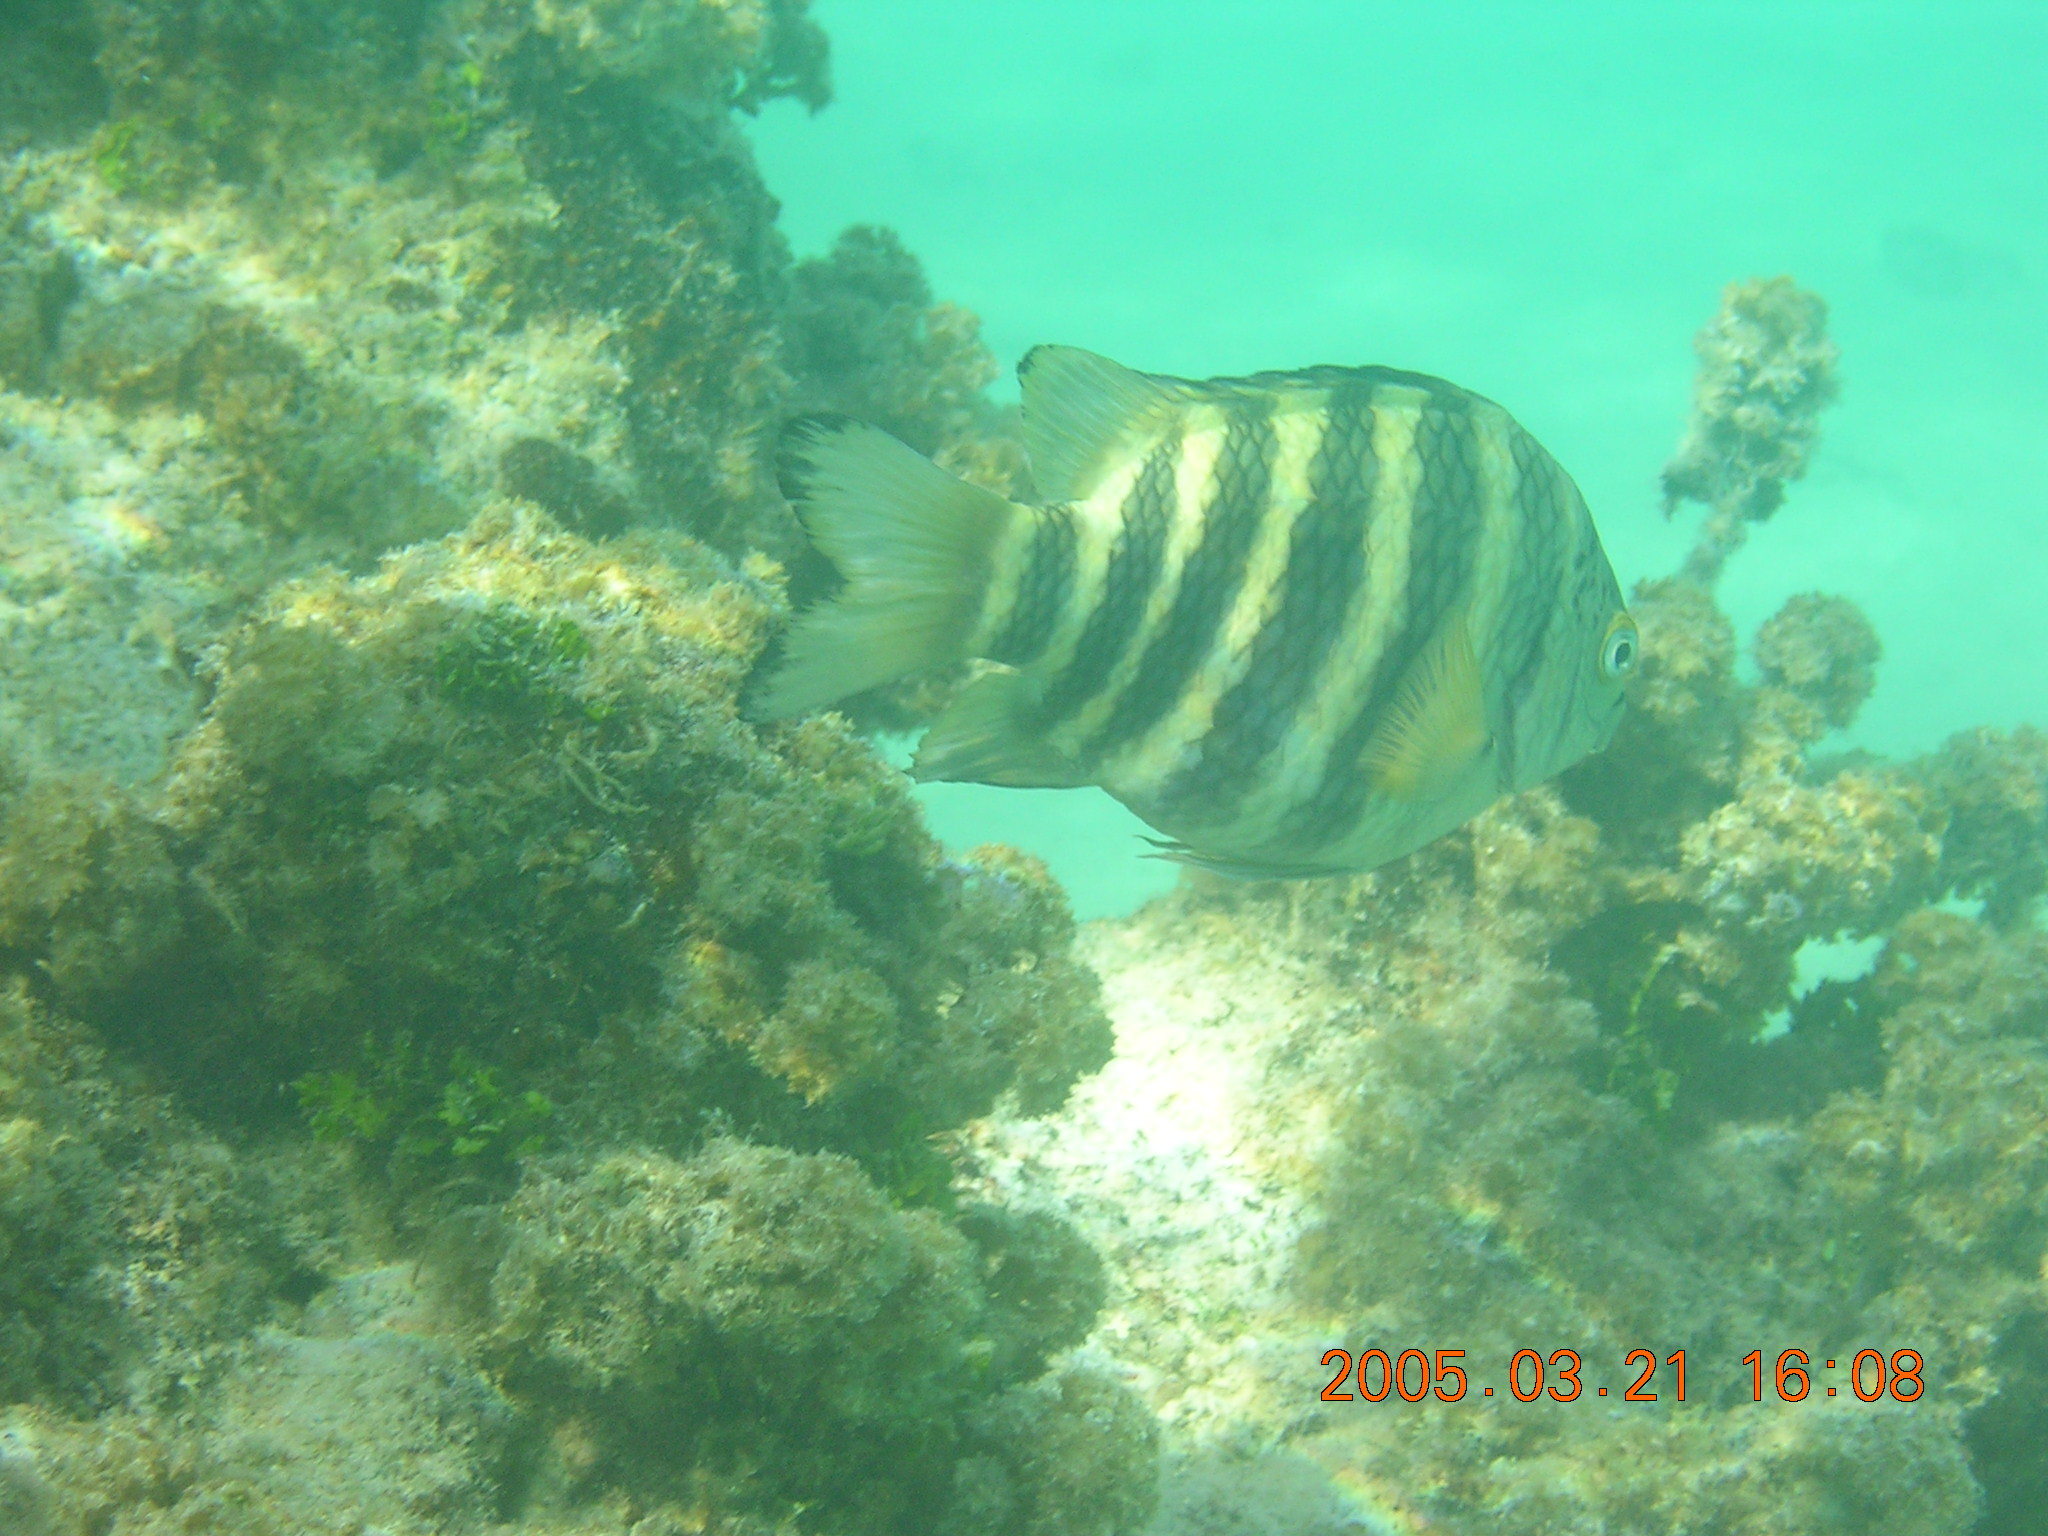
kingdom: Animalia
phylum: Chordata
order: Perciformes
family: Pomacentridae
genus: Abudefduf
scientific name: Abudefduf septemfasciatus
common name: Banded sergeant
